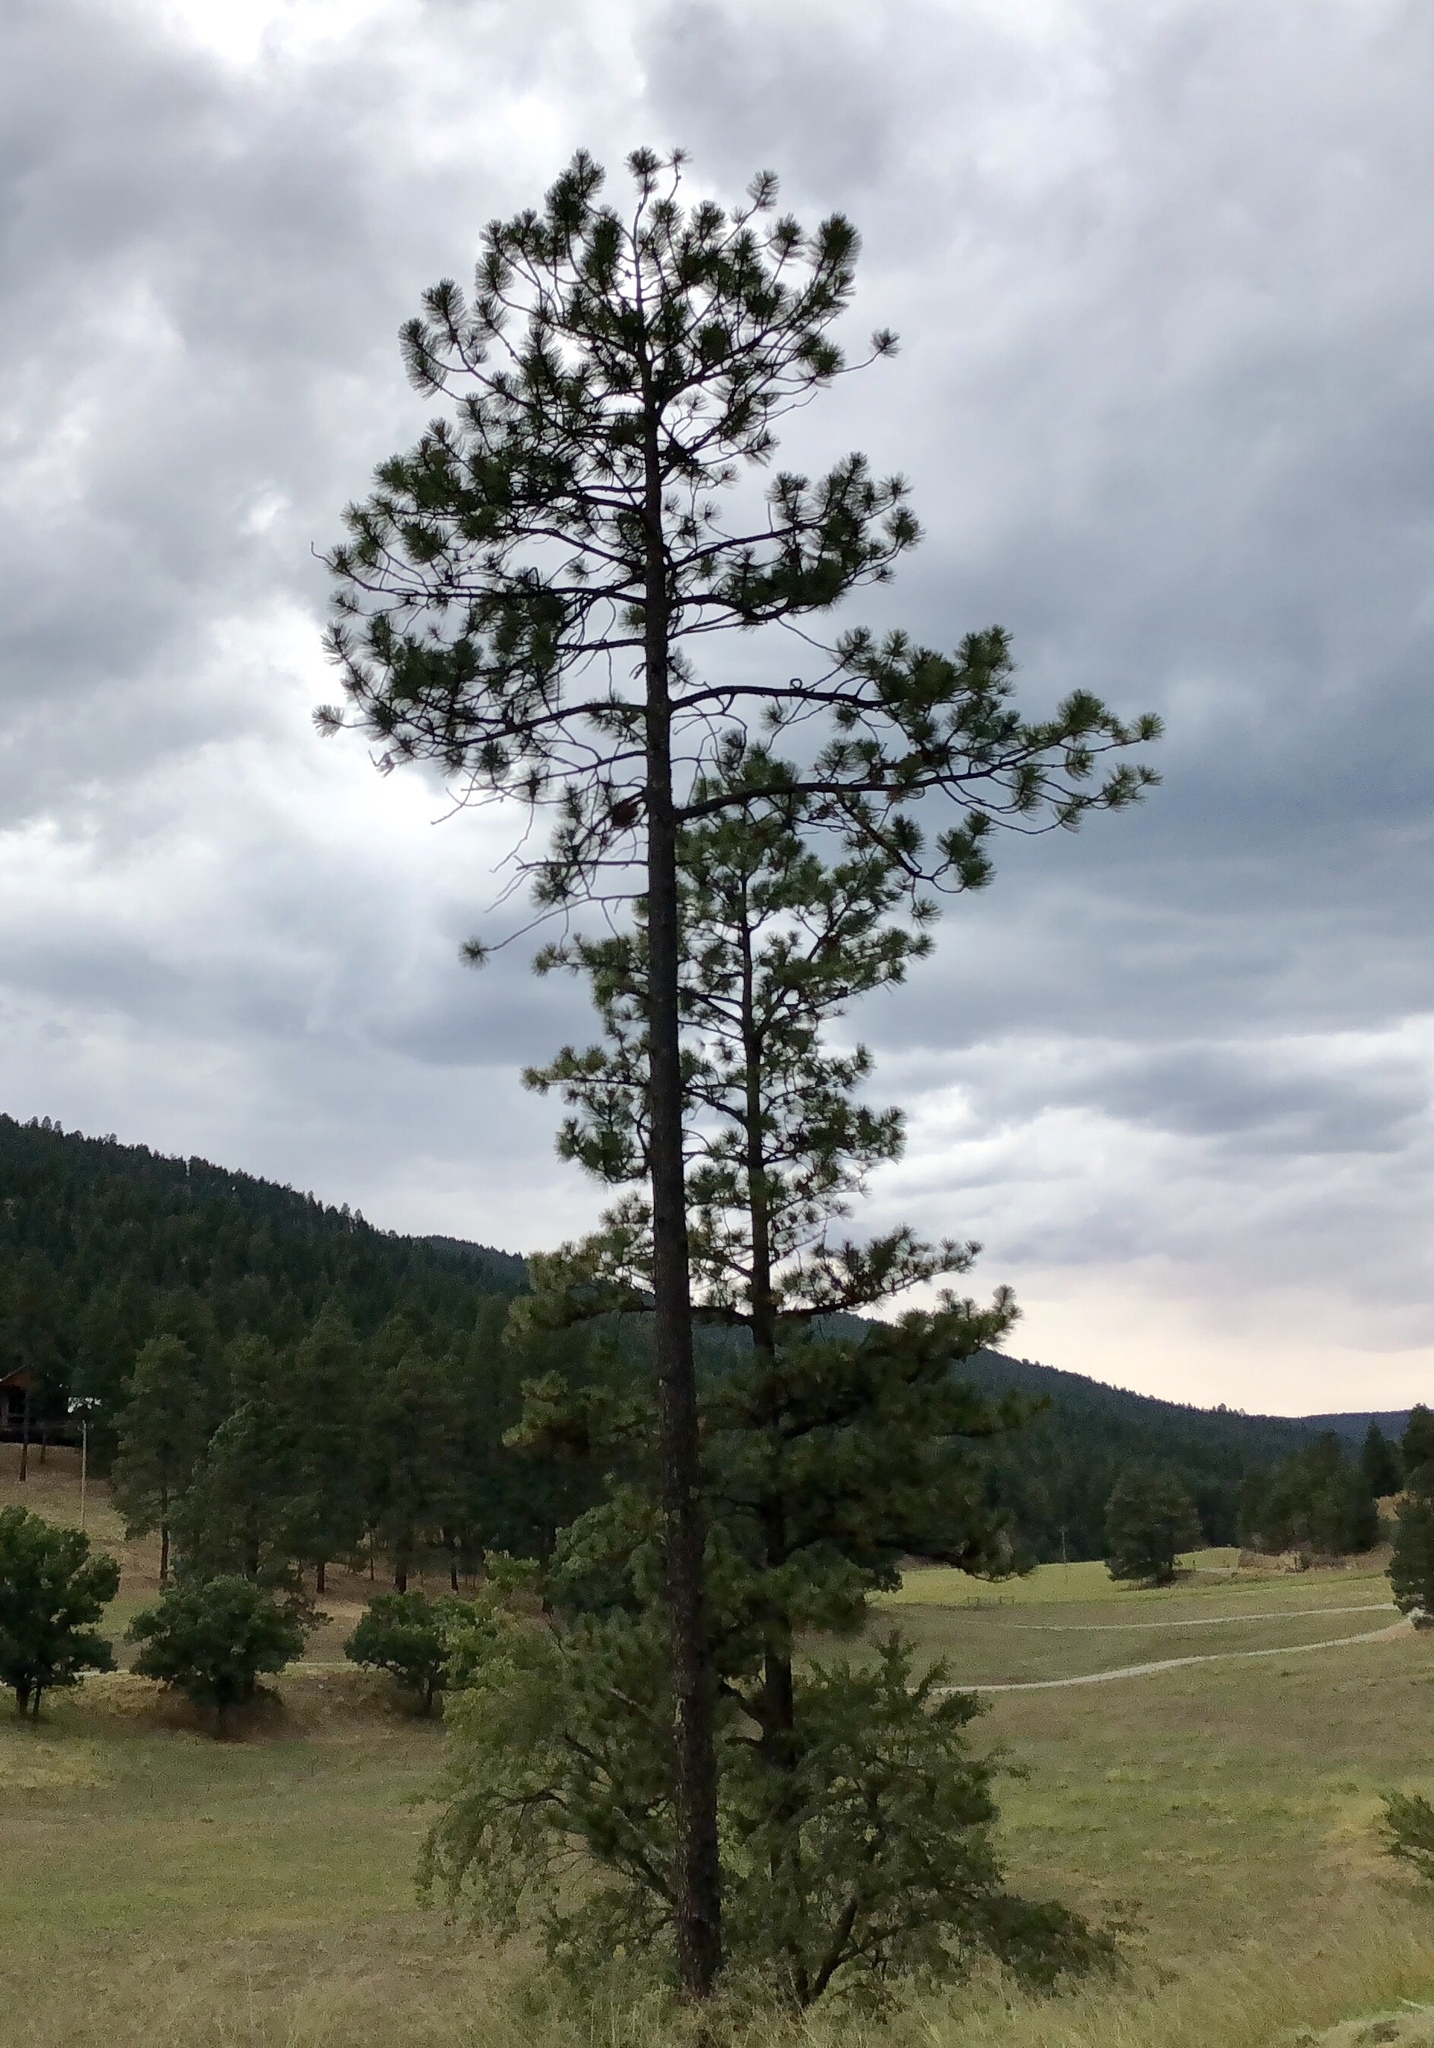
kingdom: Plantae
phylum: Tracheophyta
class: Pinopsida
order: Pinales
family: Pinaceae
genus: Pinus
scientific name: Pinus ponderosa
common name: Western yellow-pine
